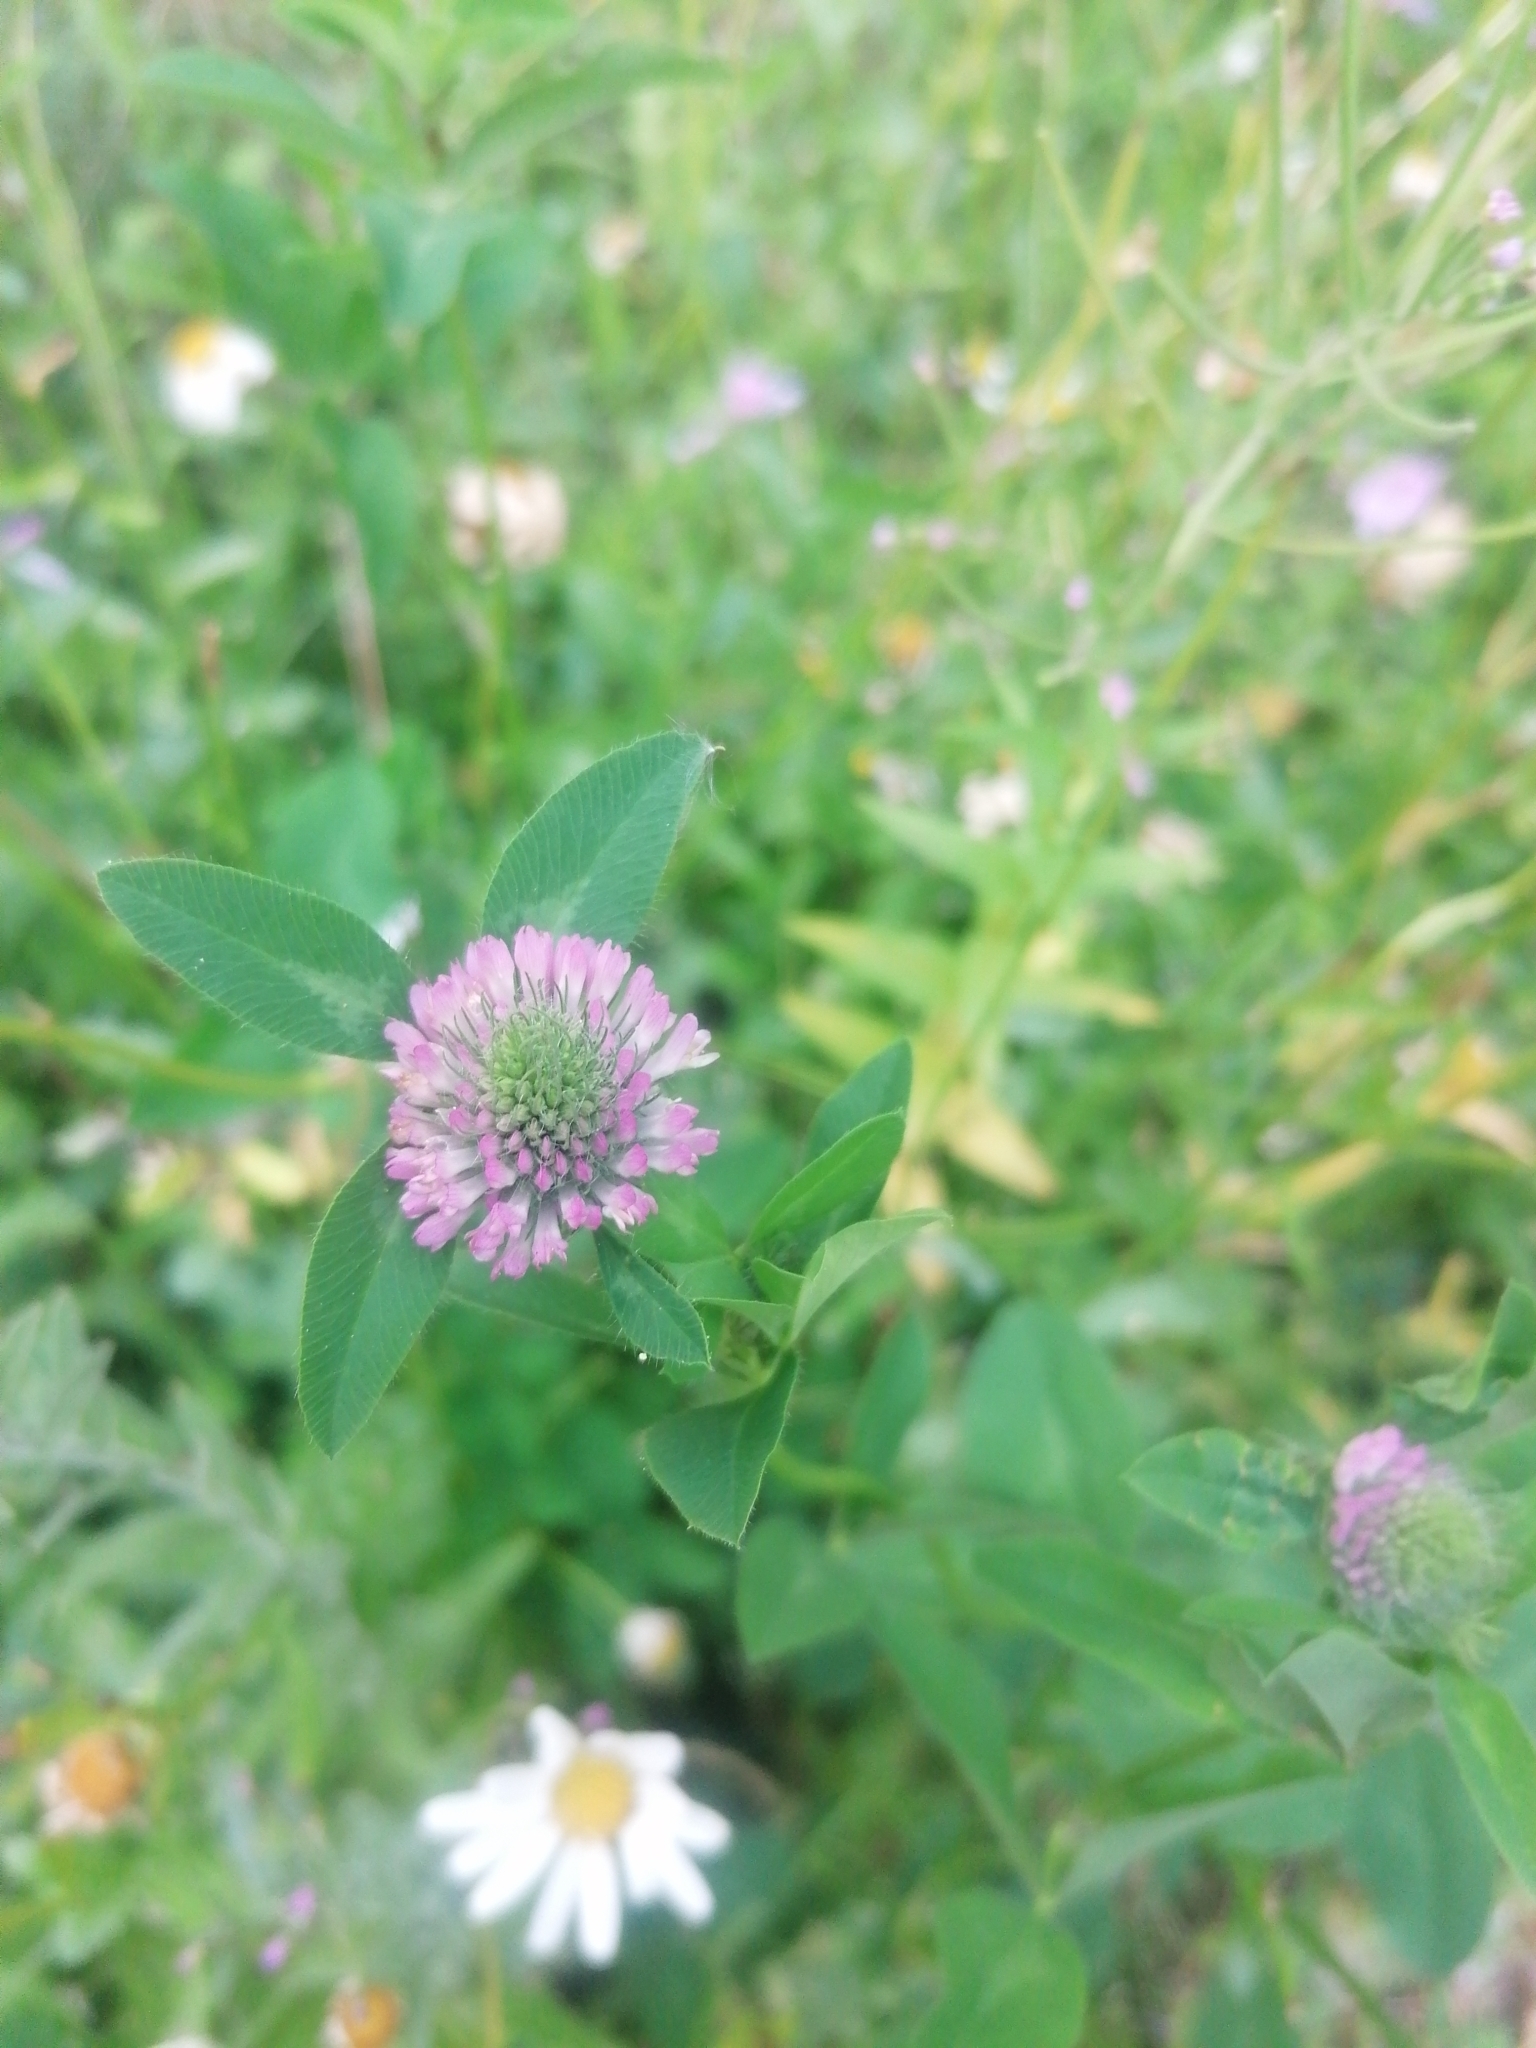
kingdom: Plantae
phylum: Tracheophyta
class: Magnoliopsida
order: Fabales
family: Fabaceae
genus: Trifolium
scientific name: Trifolium medium
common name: Zigzag clover
